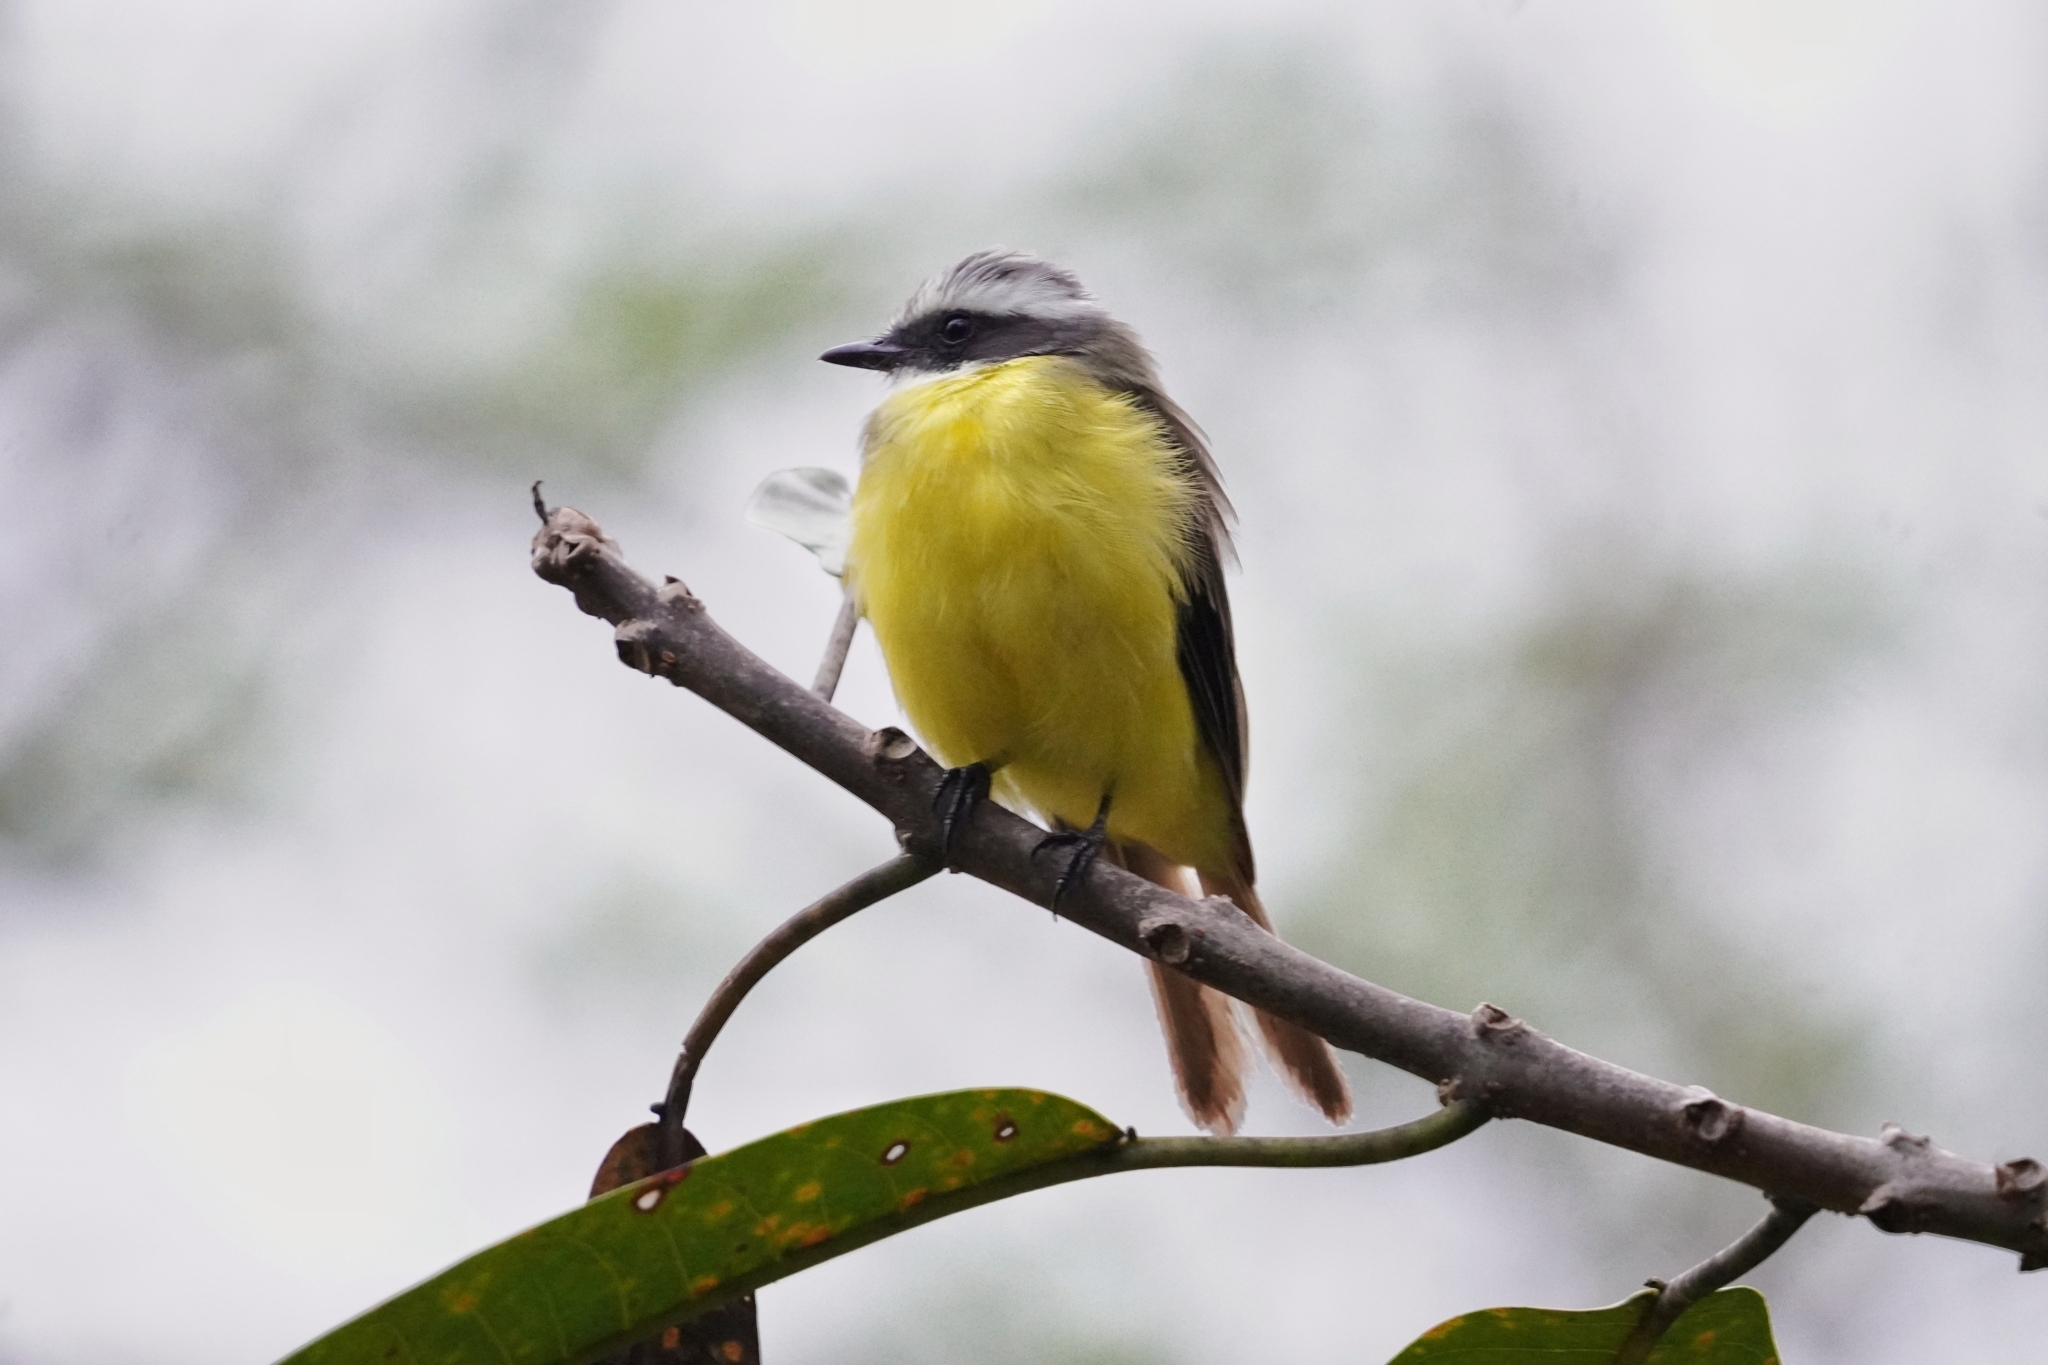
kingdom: Animalia
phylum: Chordata
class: Aves
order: Passeriformes
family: Tyrannidae
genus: Myiozetetes
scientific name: Myiozetetes similis
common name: Social flycatcher
